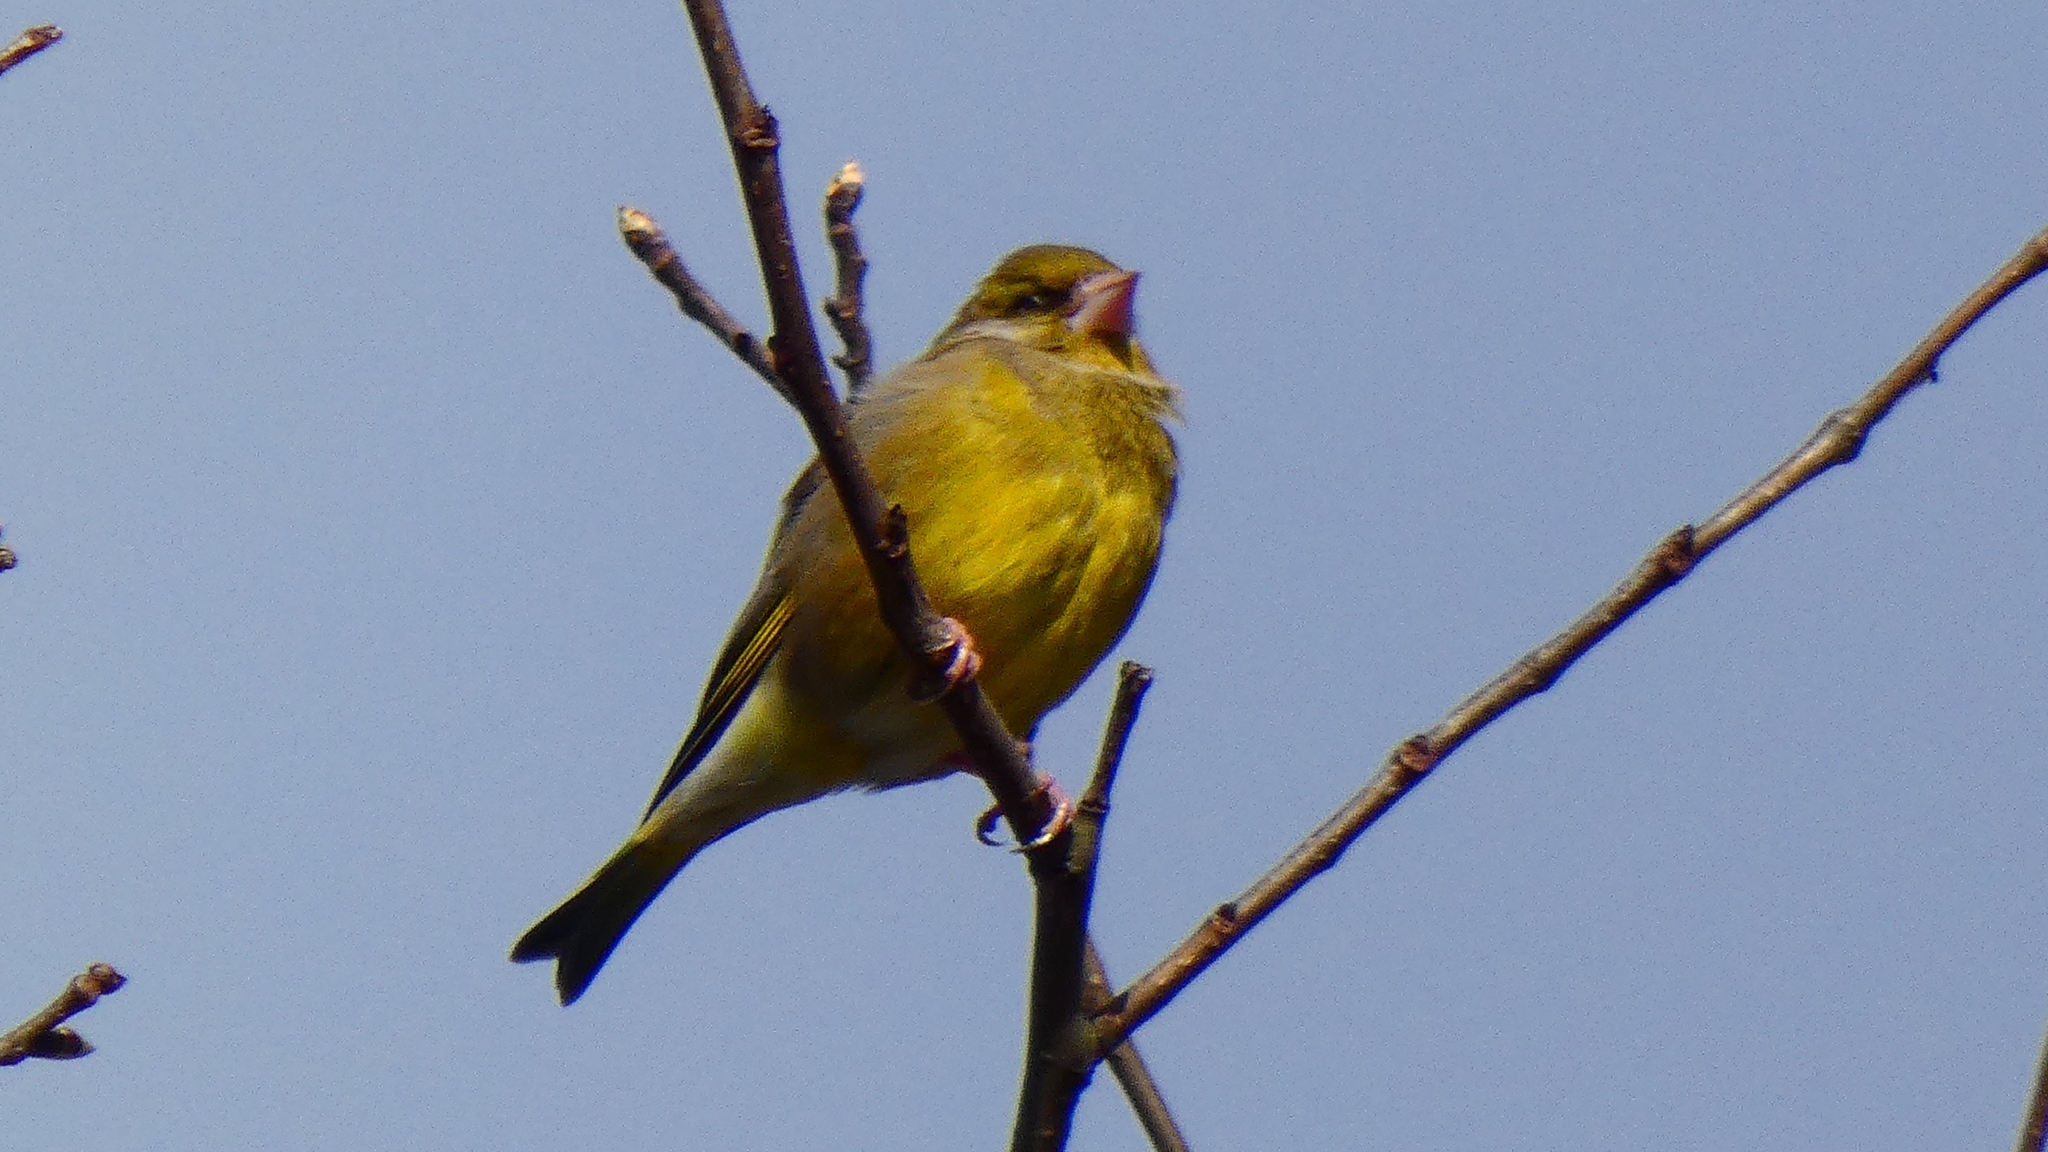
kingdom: Plantae
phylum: Tracheophyta
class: Liliopsida
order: Poales
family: Poaceae
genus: Chloris
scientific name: Chloris chloris
